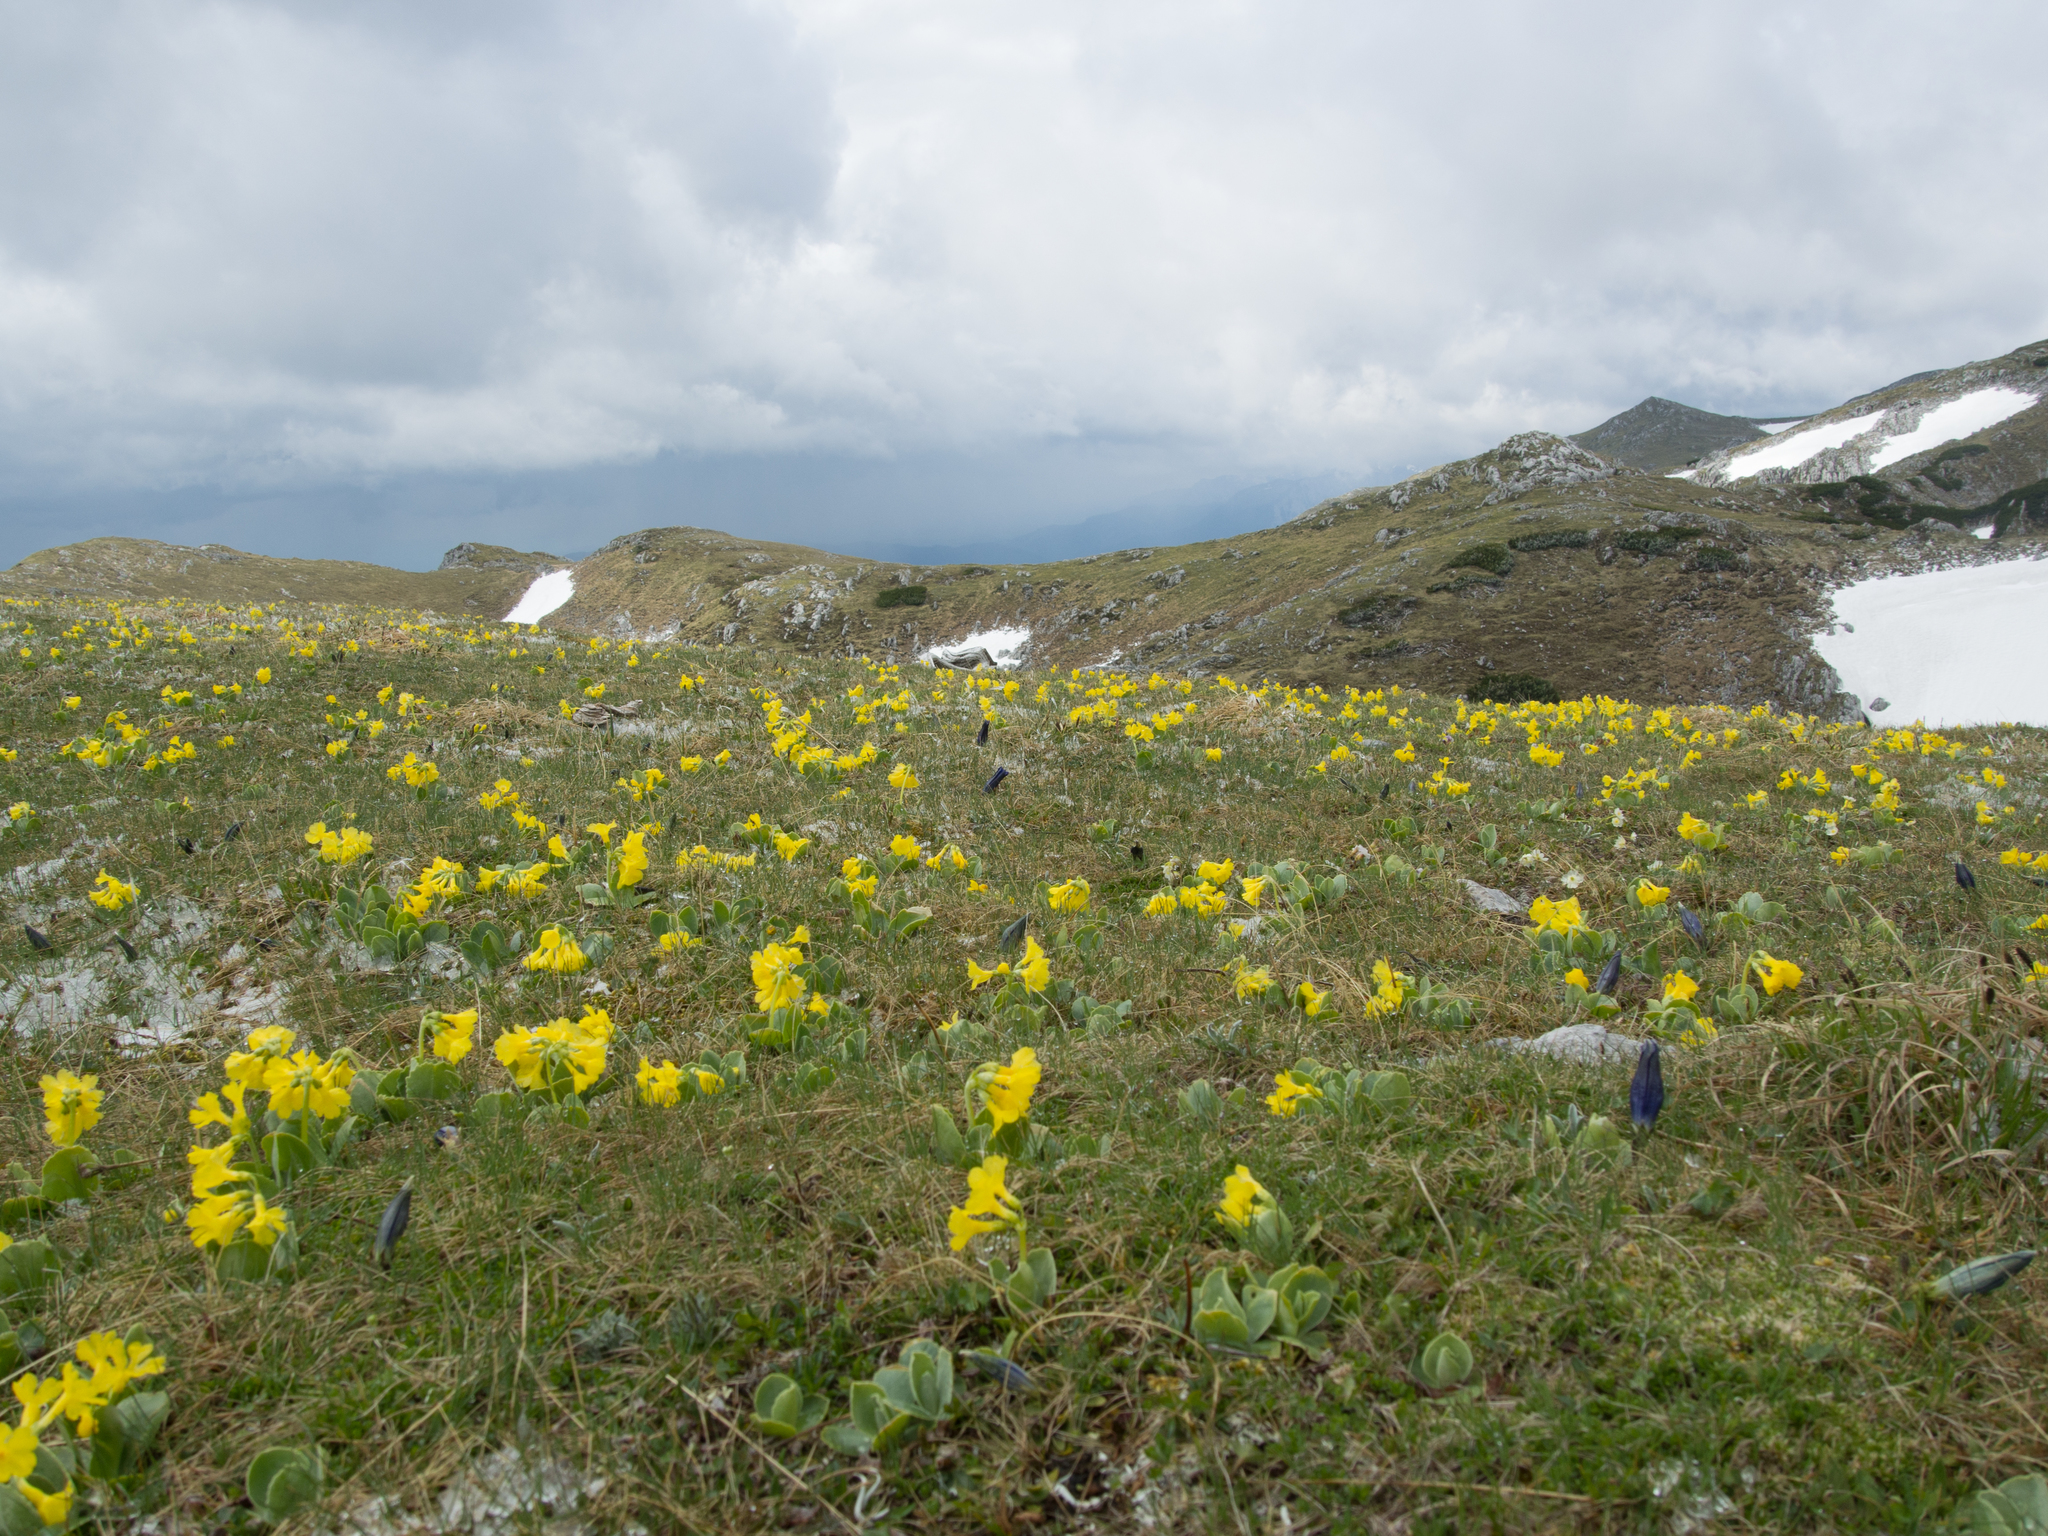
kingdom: Plantae
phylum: Tracheophyta
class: Magnoliopsida
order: Ericales
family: Primulaceae
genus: Primula
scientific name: Primula auricula
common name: Auricula
